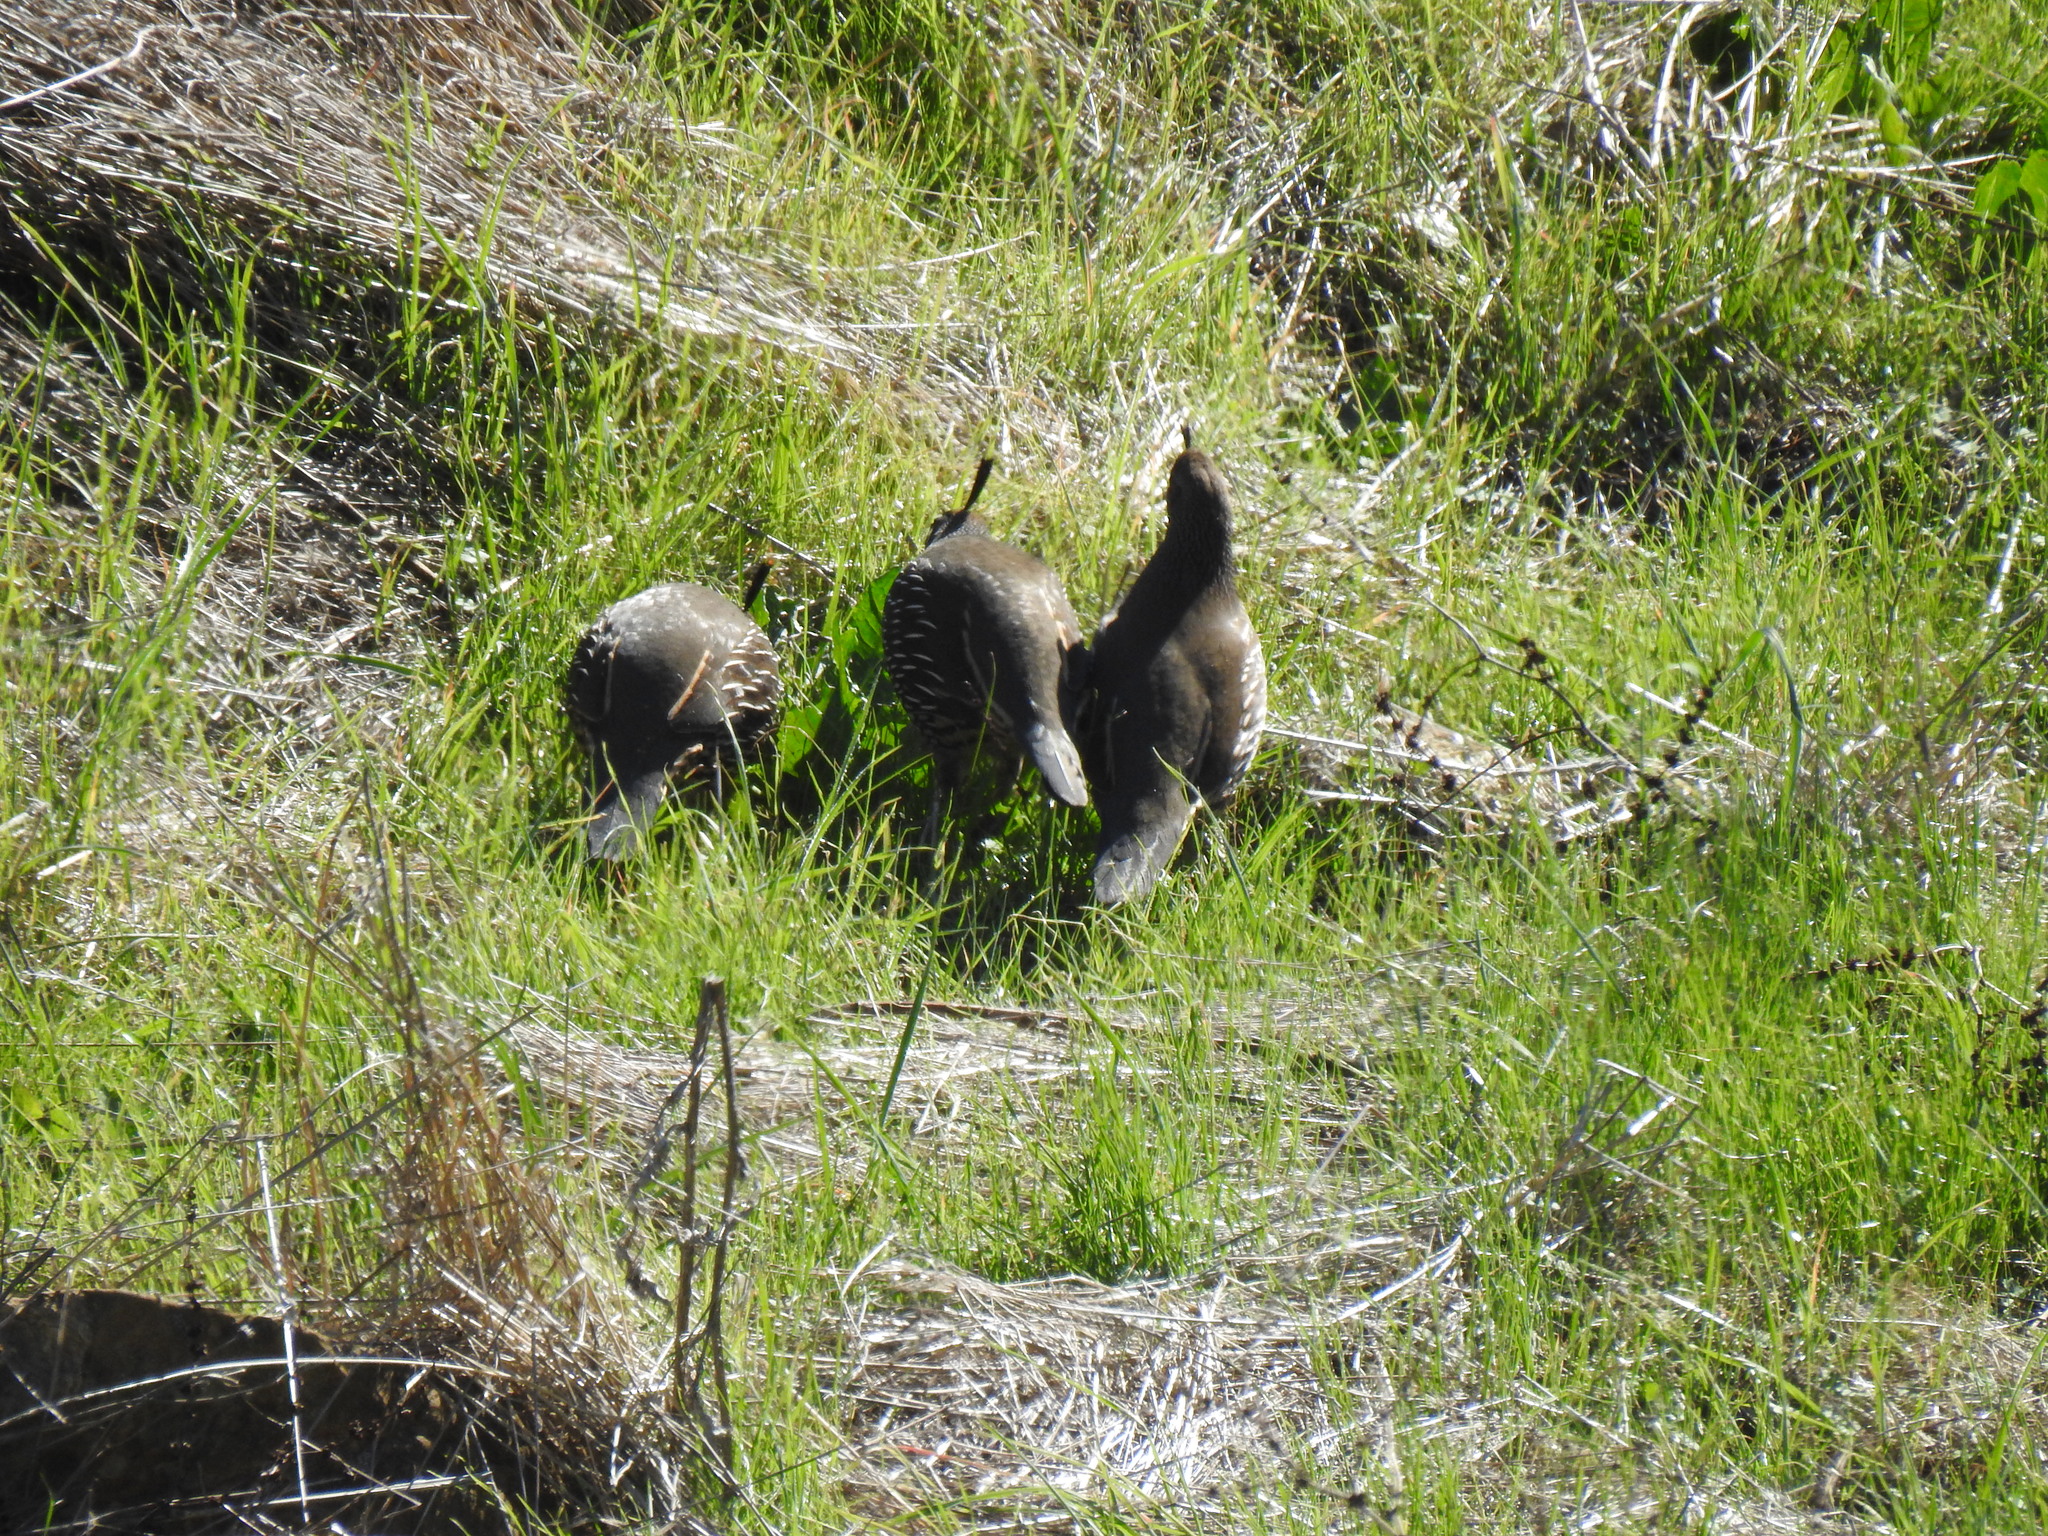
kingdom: Animalia
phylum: Chordata
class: Aves
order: Galliformes
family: Odontophoridae
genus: Callipepla
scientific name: Callipepla californica
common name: California quail
